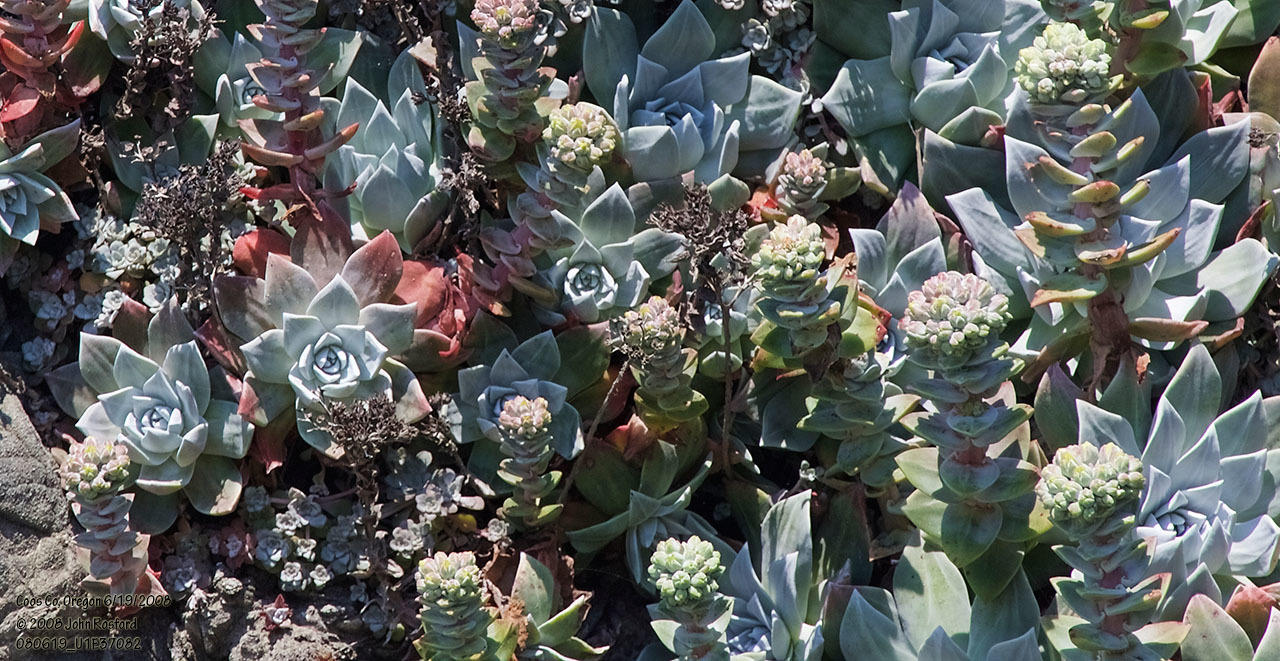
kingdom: Plantae
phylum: Tracheophyta
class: Magnoliopsida
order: Saxifragales
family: Crassulaceae
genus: Dudleya
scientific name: Dudleya farinosa
